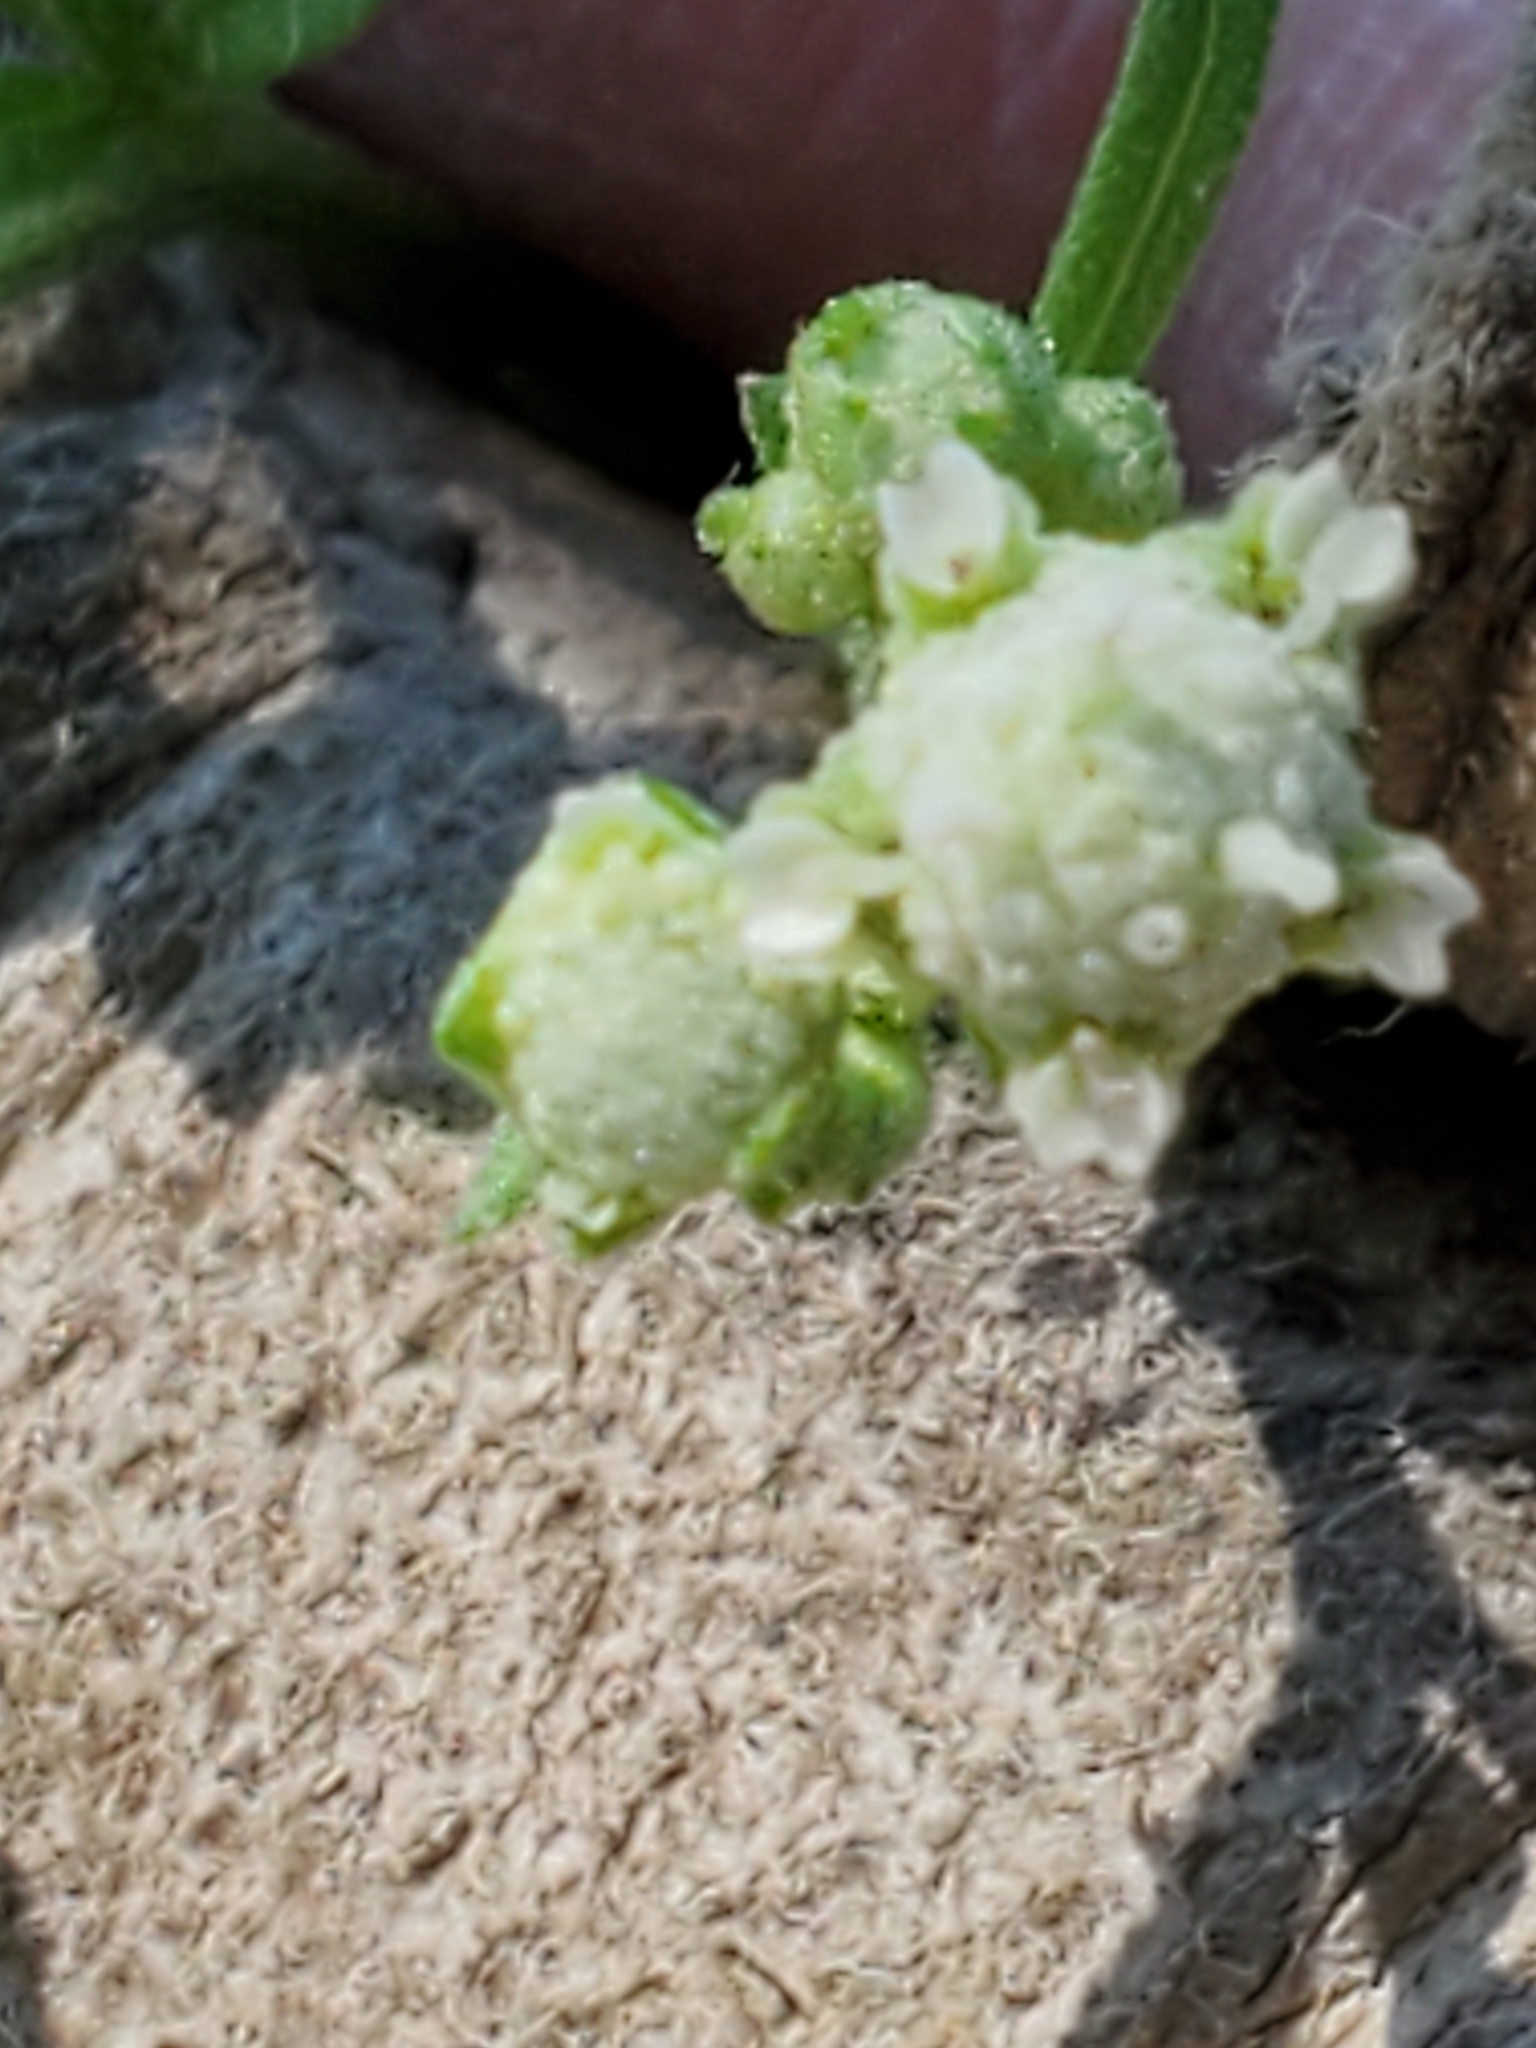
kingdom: Plantae
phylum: Tracheophyta
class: Magnoliopsida
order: Asterales
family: Asteraceae
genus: Parthenium
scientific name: Parthenium hysterophorus
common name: Santa maria feverfew
